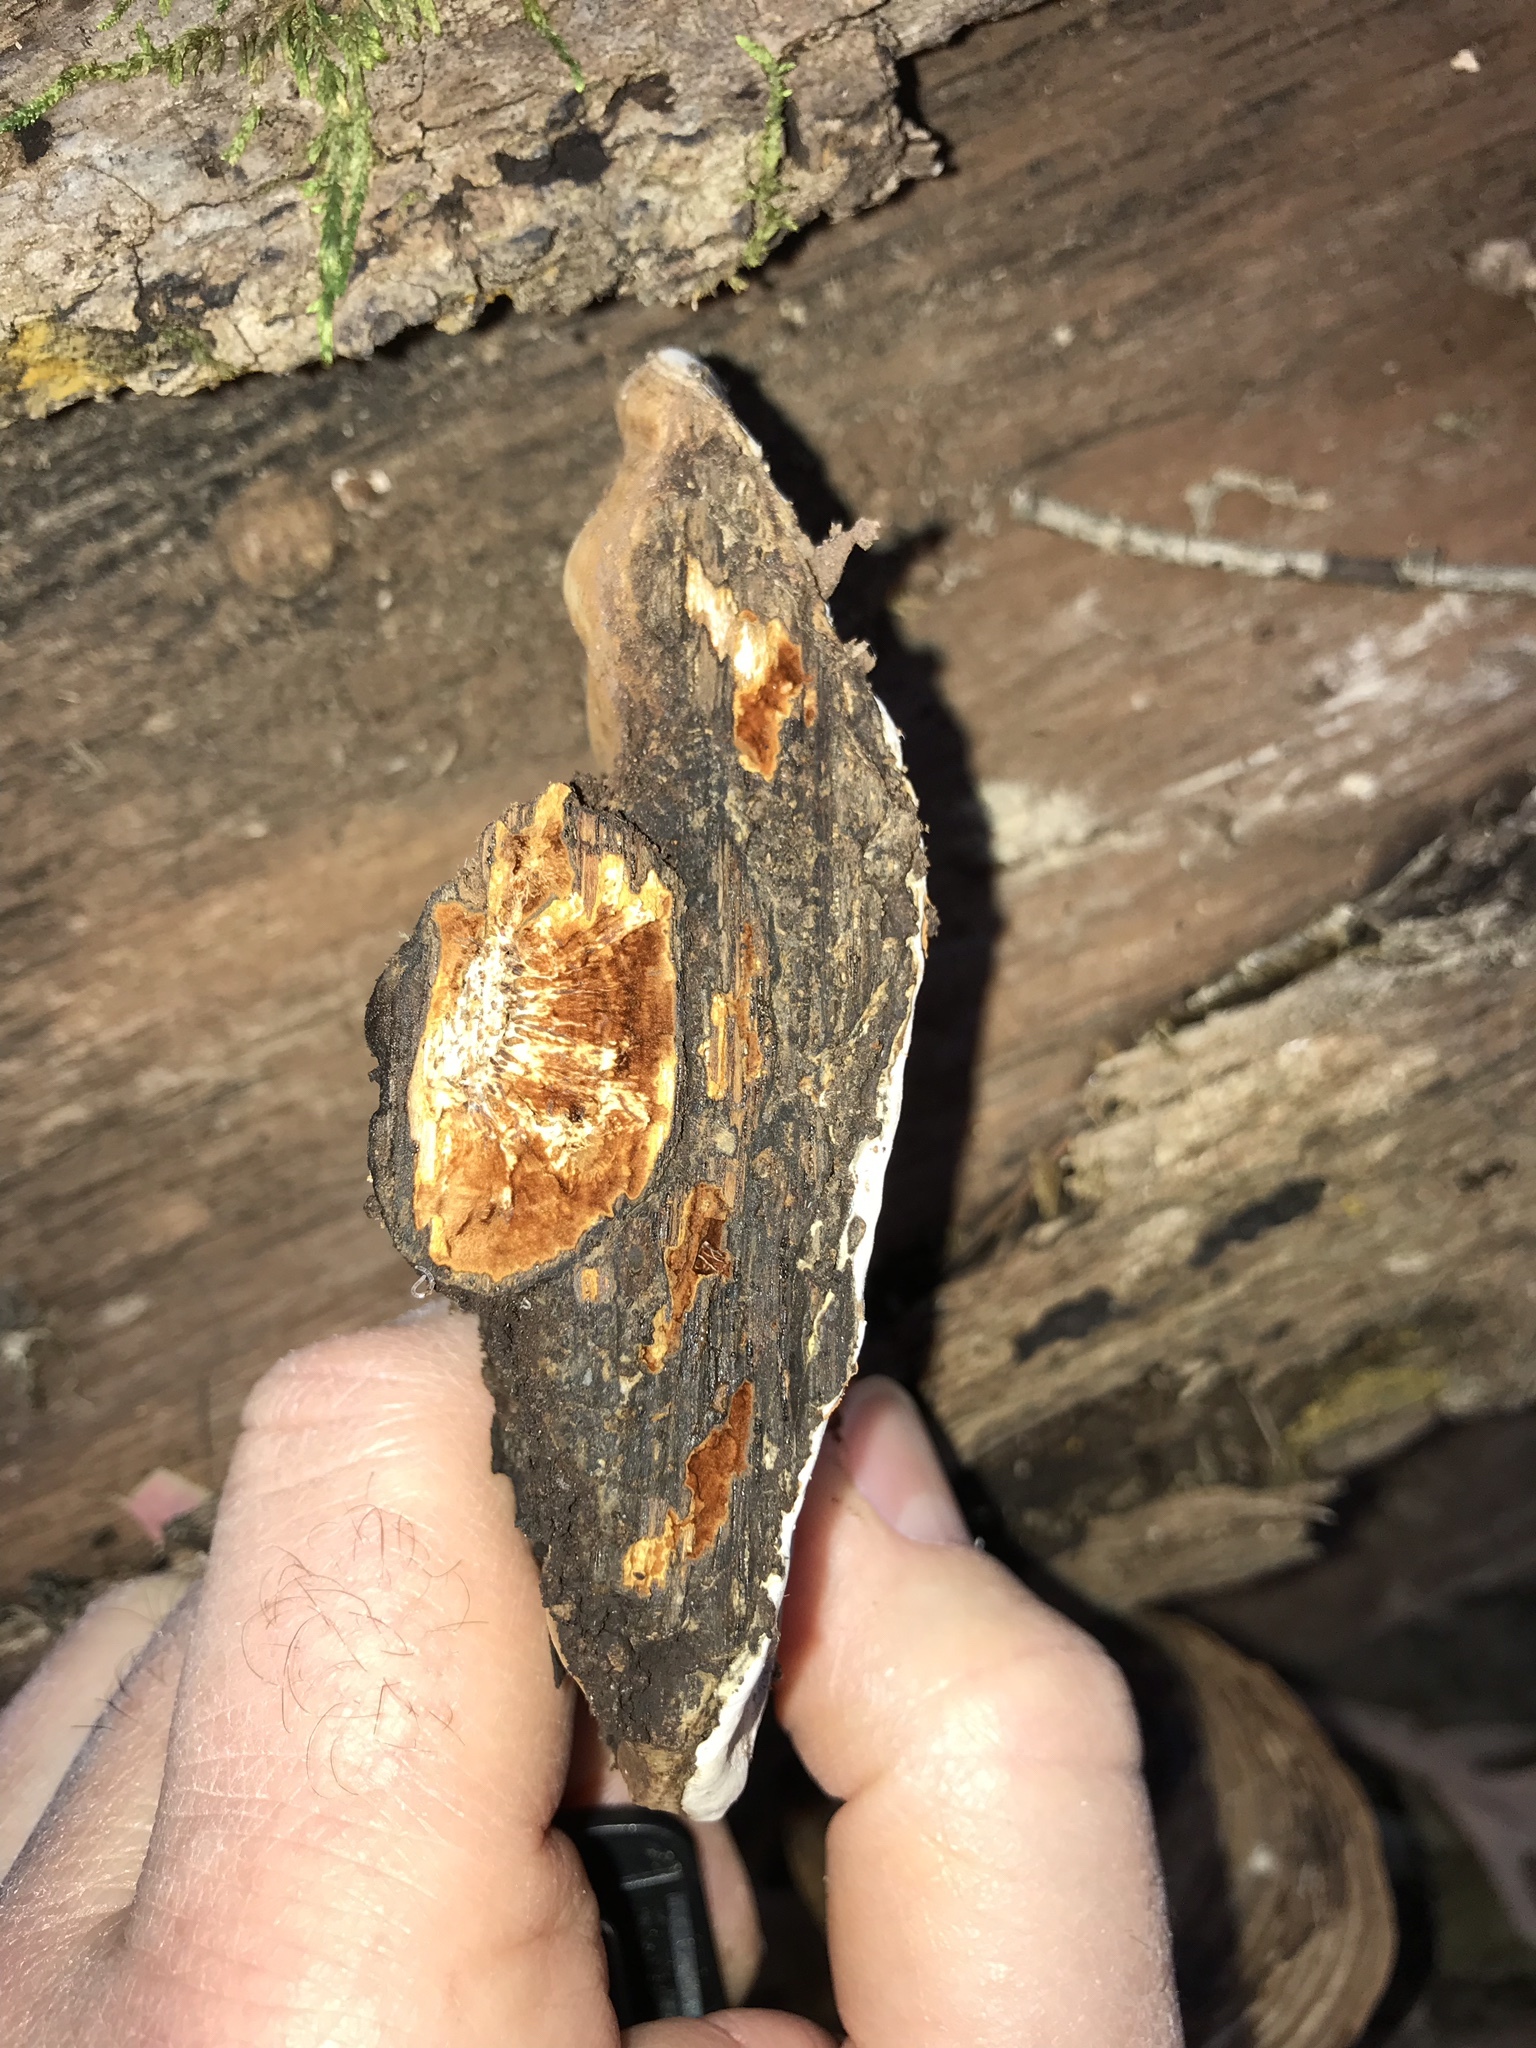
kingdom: Fungi
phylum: Basidiomycota
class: Agaricomycetes
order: Polyporales
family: Polyporaceae
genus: Ganoderma
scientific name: Ganoderma applanatum
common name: Artist's bracket
